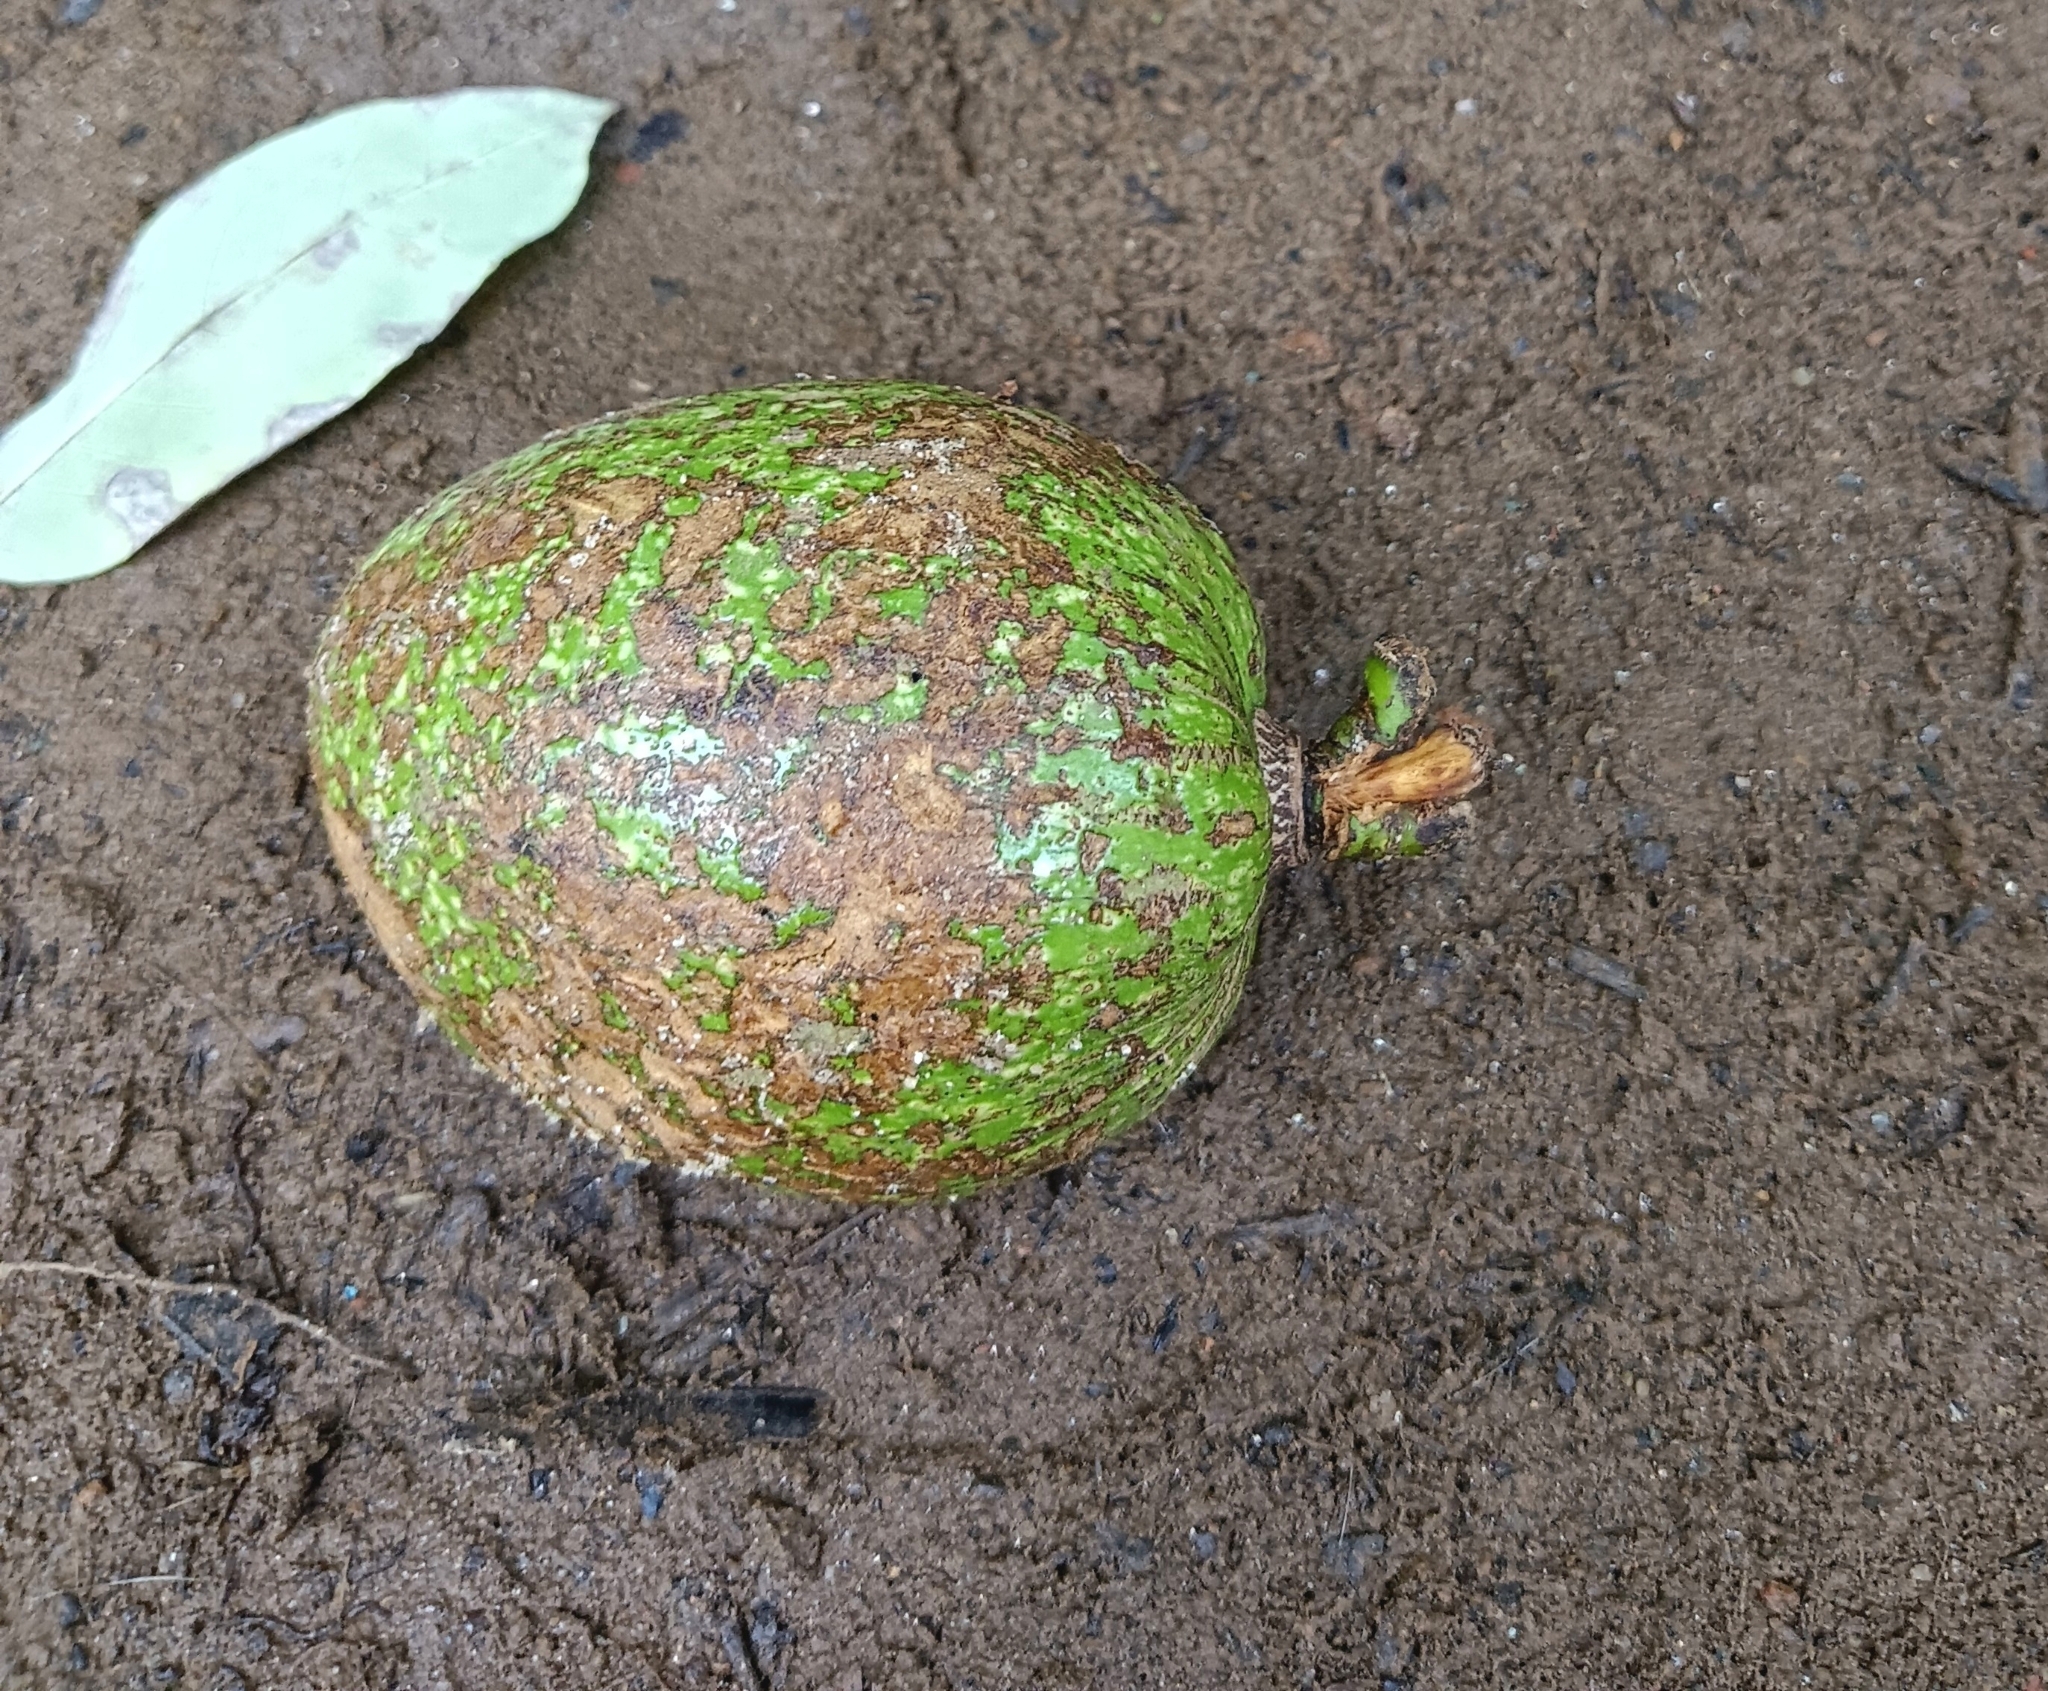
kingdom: Plantae
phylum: Tracheophyta
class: Magnoliopsida
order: Magnoliales
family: Annonaceae
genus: Annona
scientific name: Annona glabra
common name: Monkey apple
